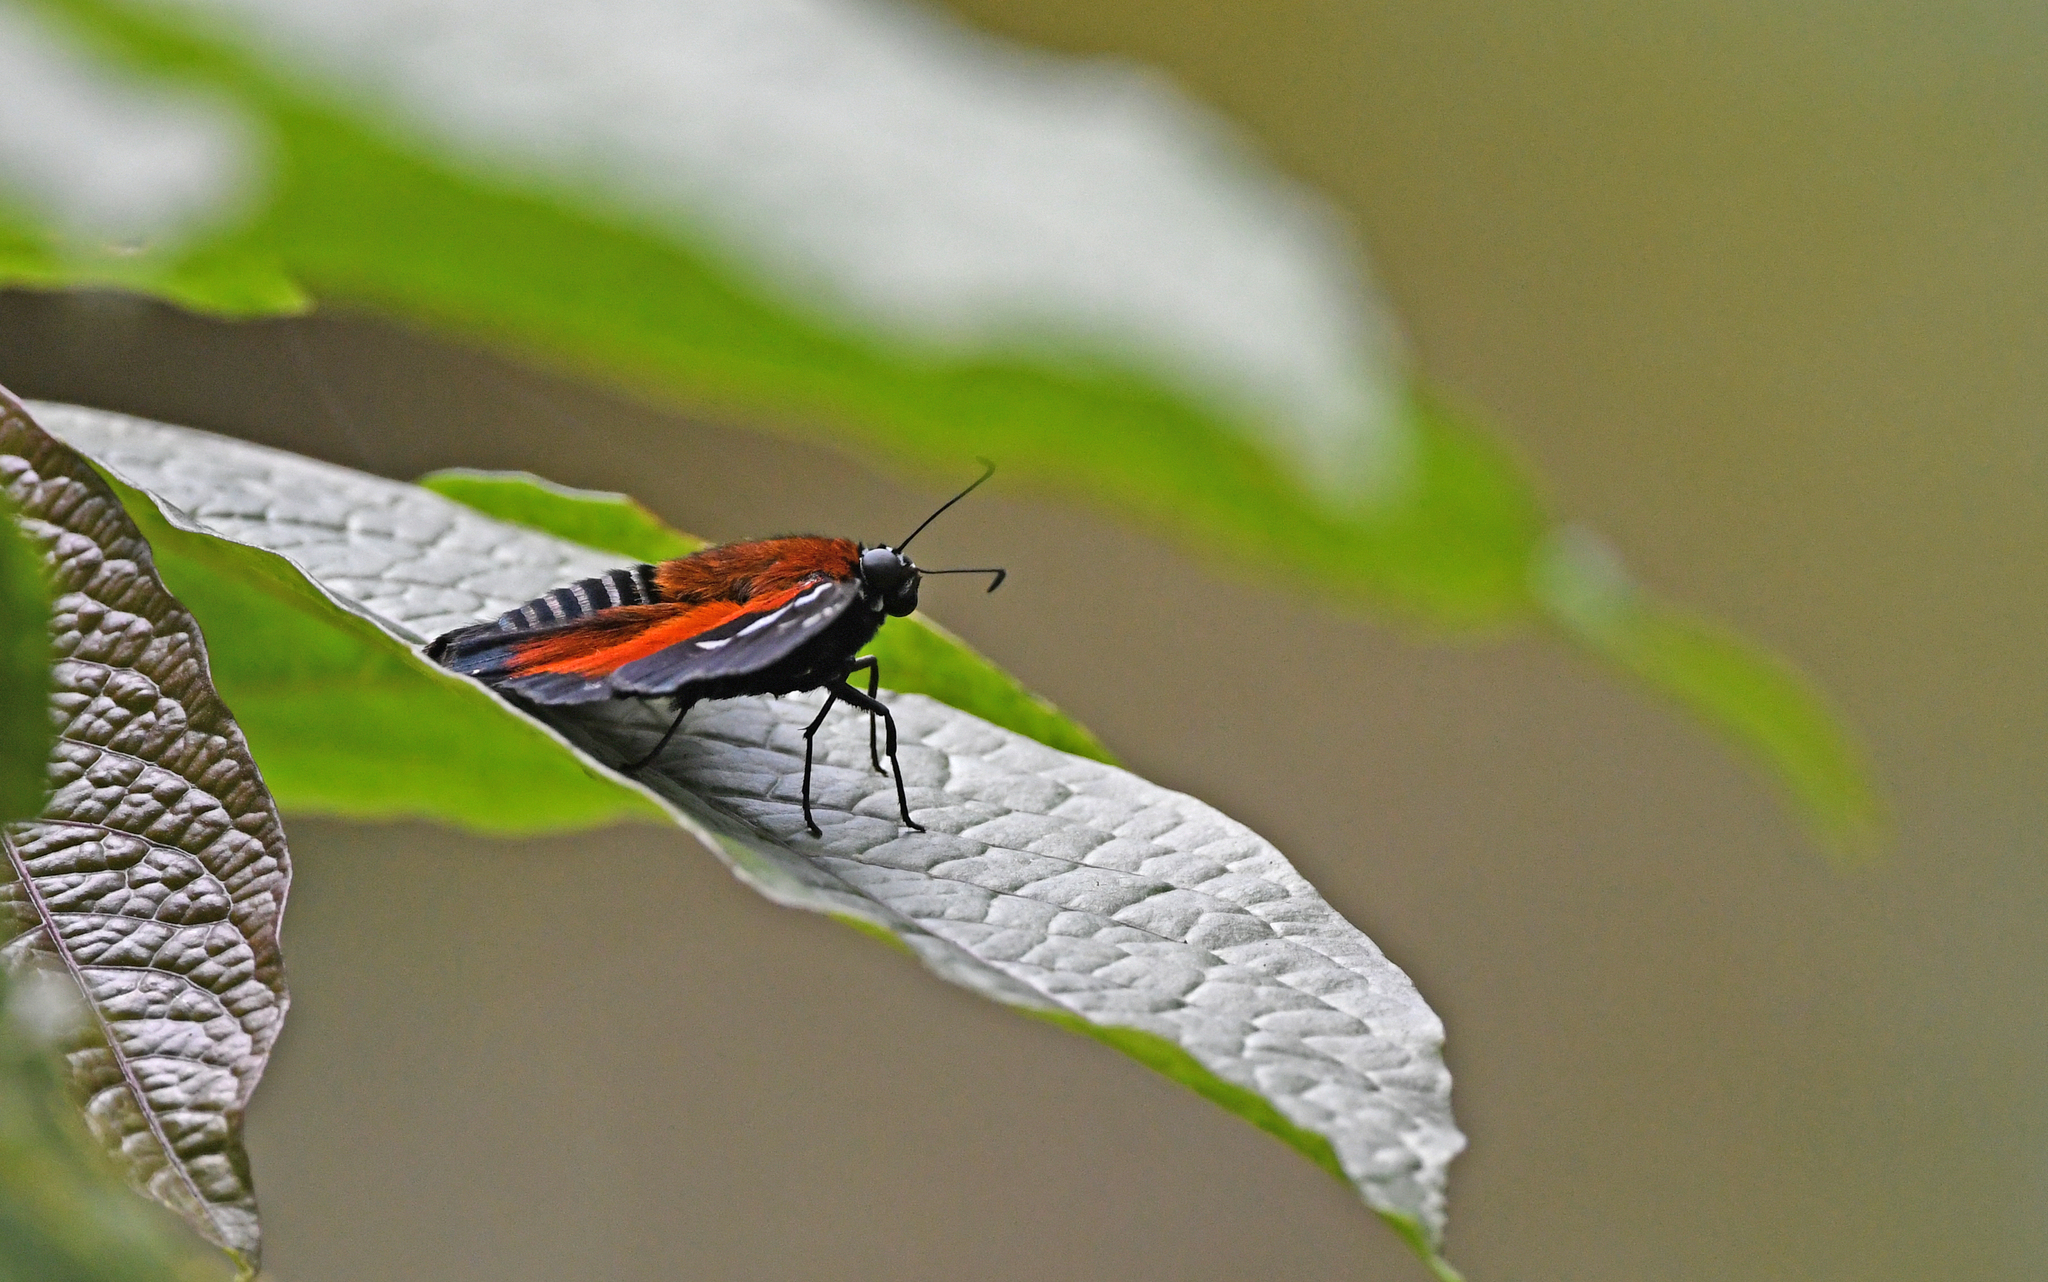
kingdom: Animalia
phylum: Arthropoda
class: Insecta
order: Lepidoptera
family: Hesperiidae
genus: Pyrrhopyge
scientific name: Pyrrhopyge Yanguna spatiosa
